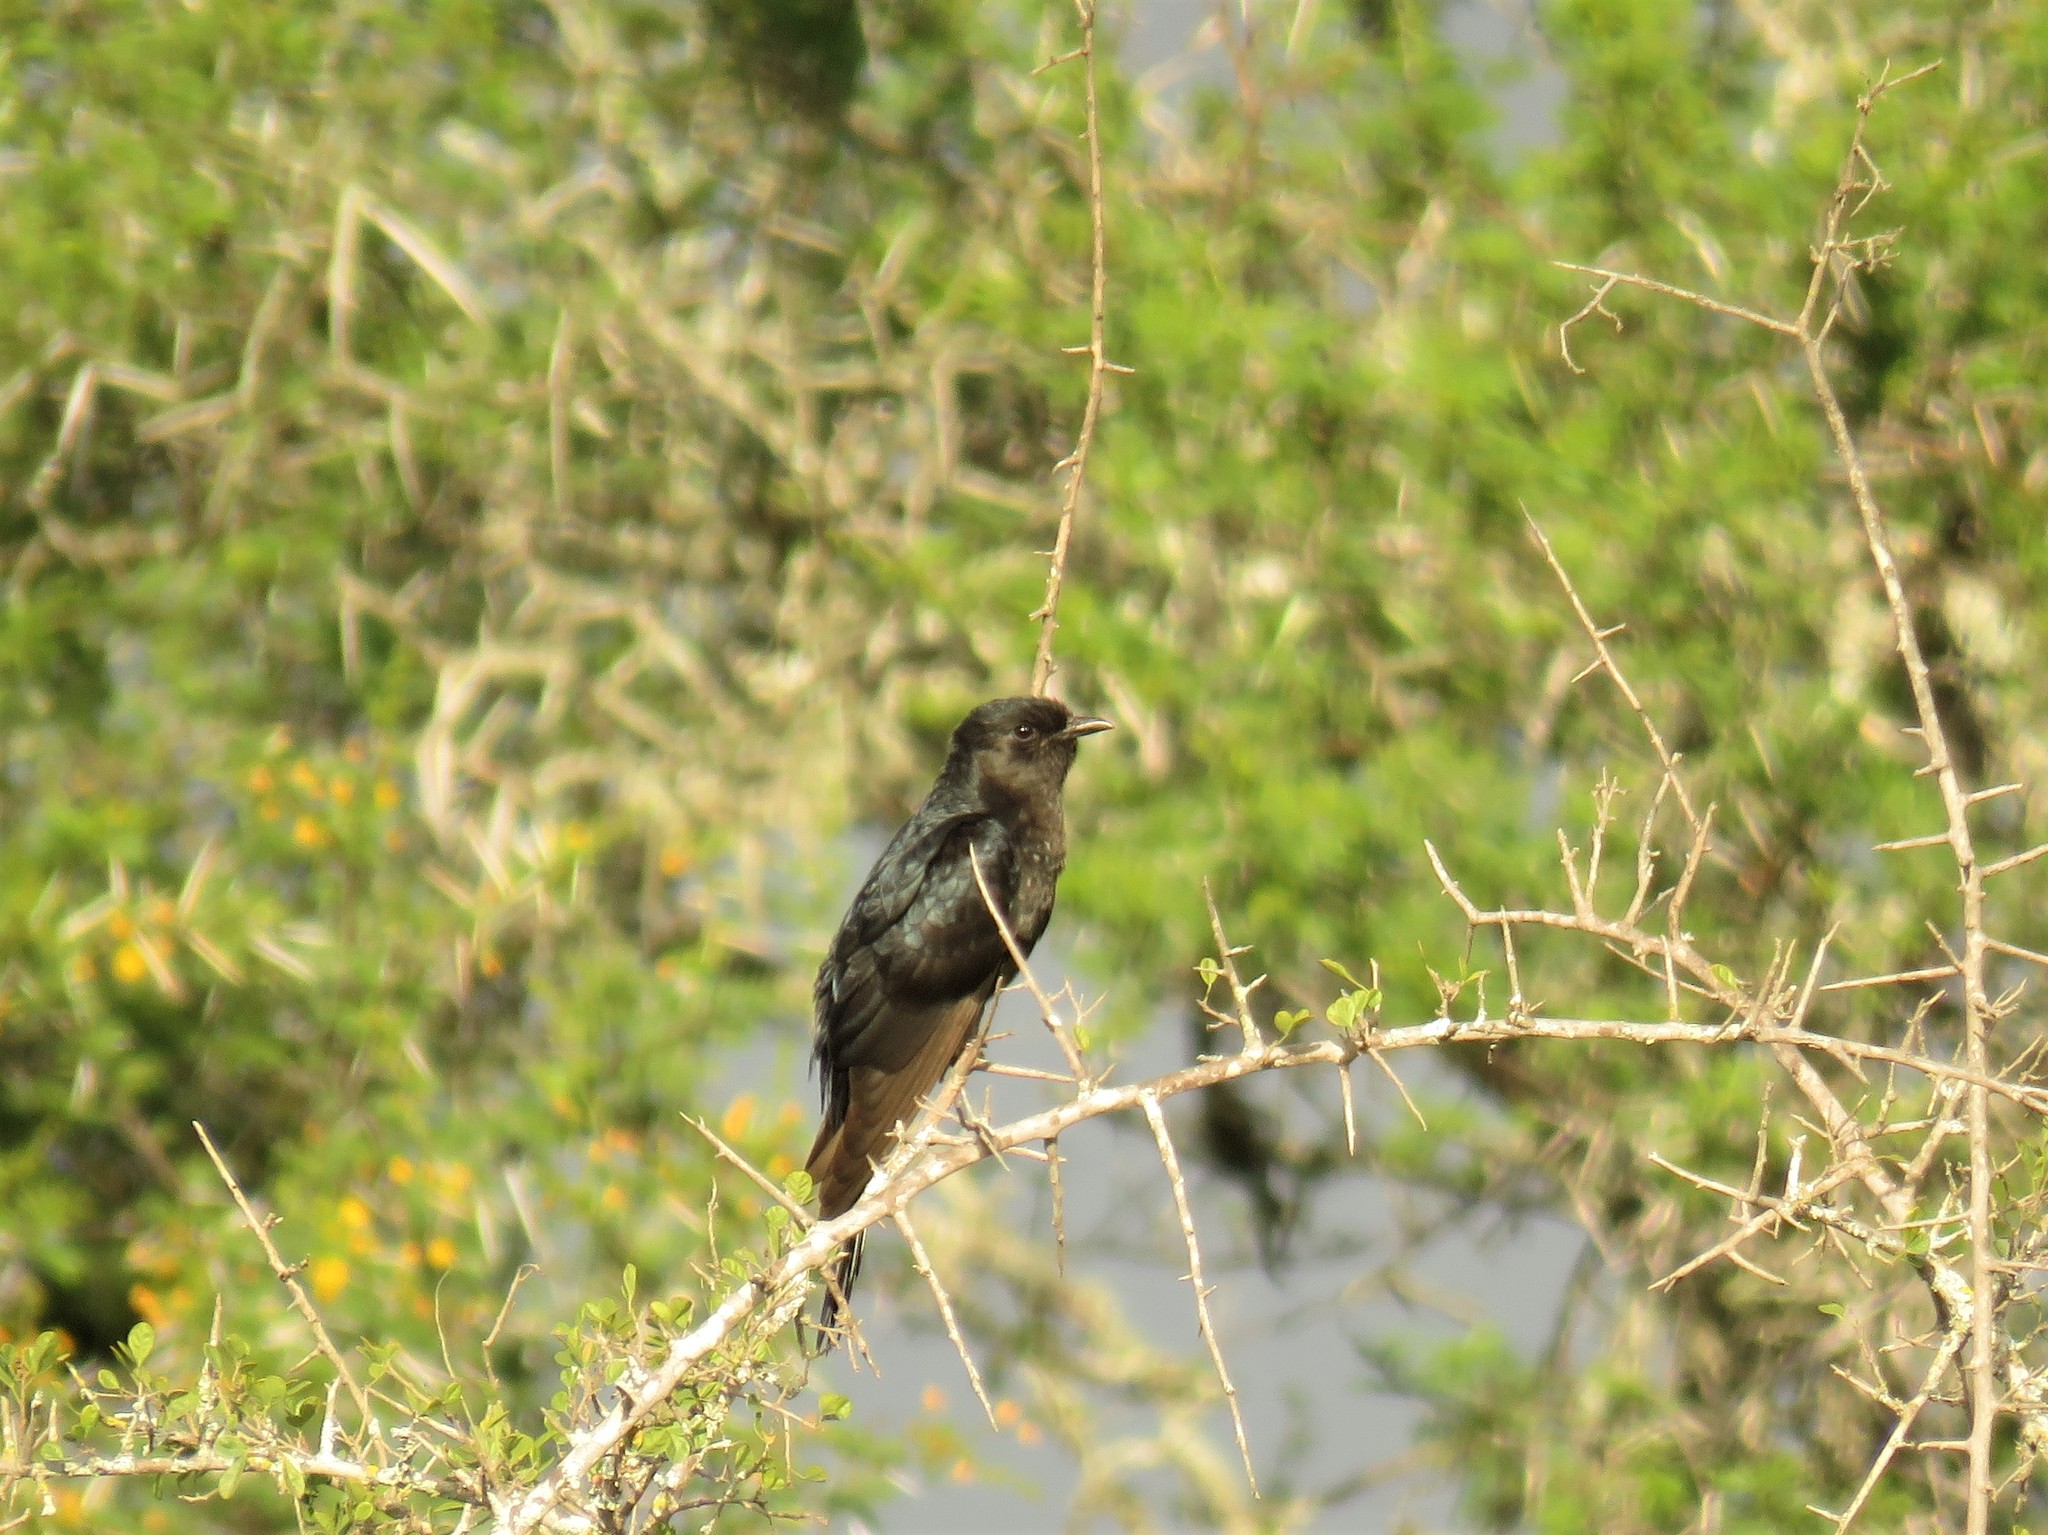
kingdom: Animalia
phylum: Chordata
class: Aves
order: Cuculiformes
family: Cuculidae
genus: Cuculus
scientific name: Cuculus clamosus
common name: Black cuckoo
